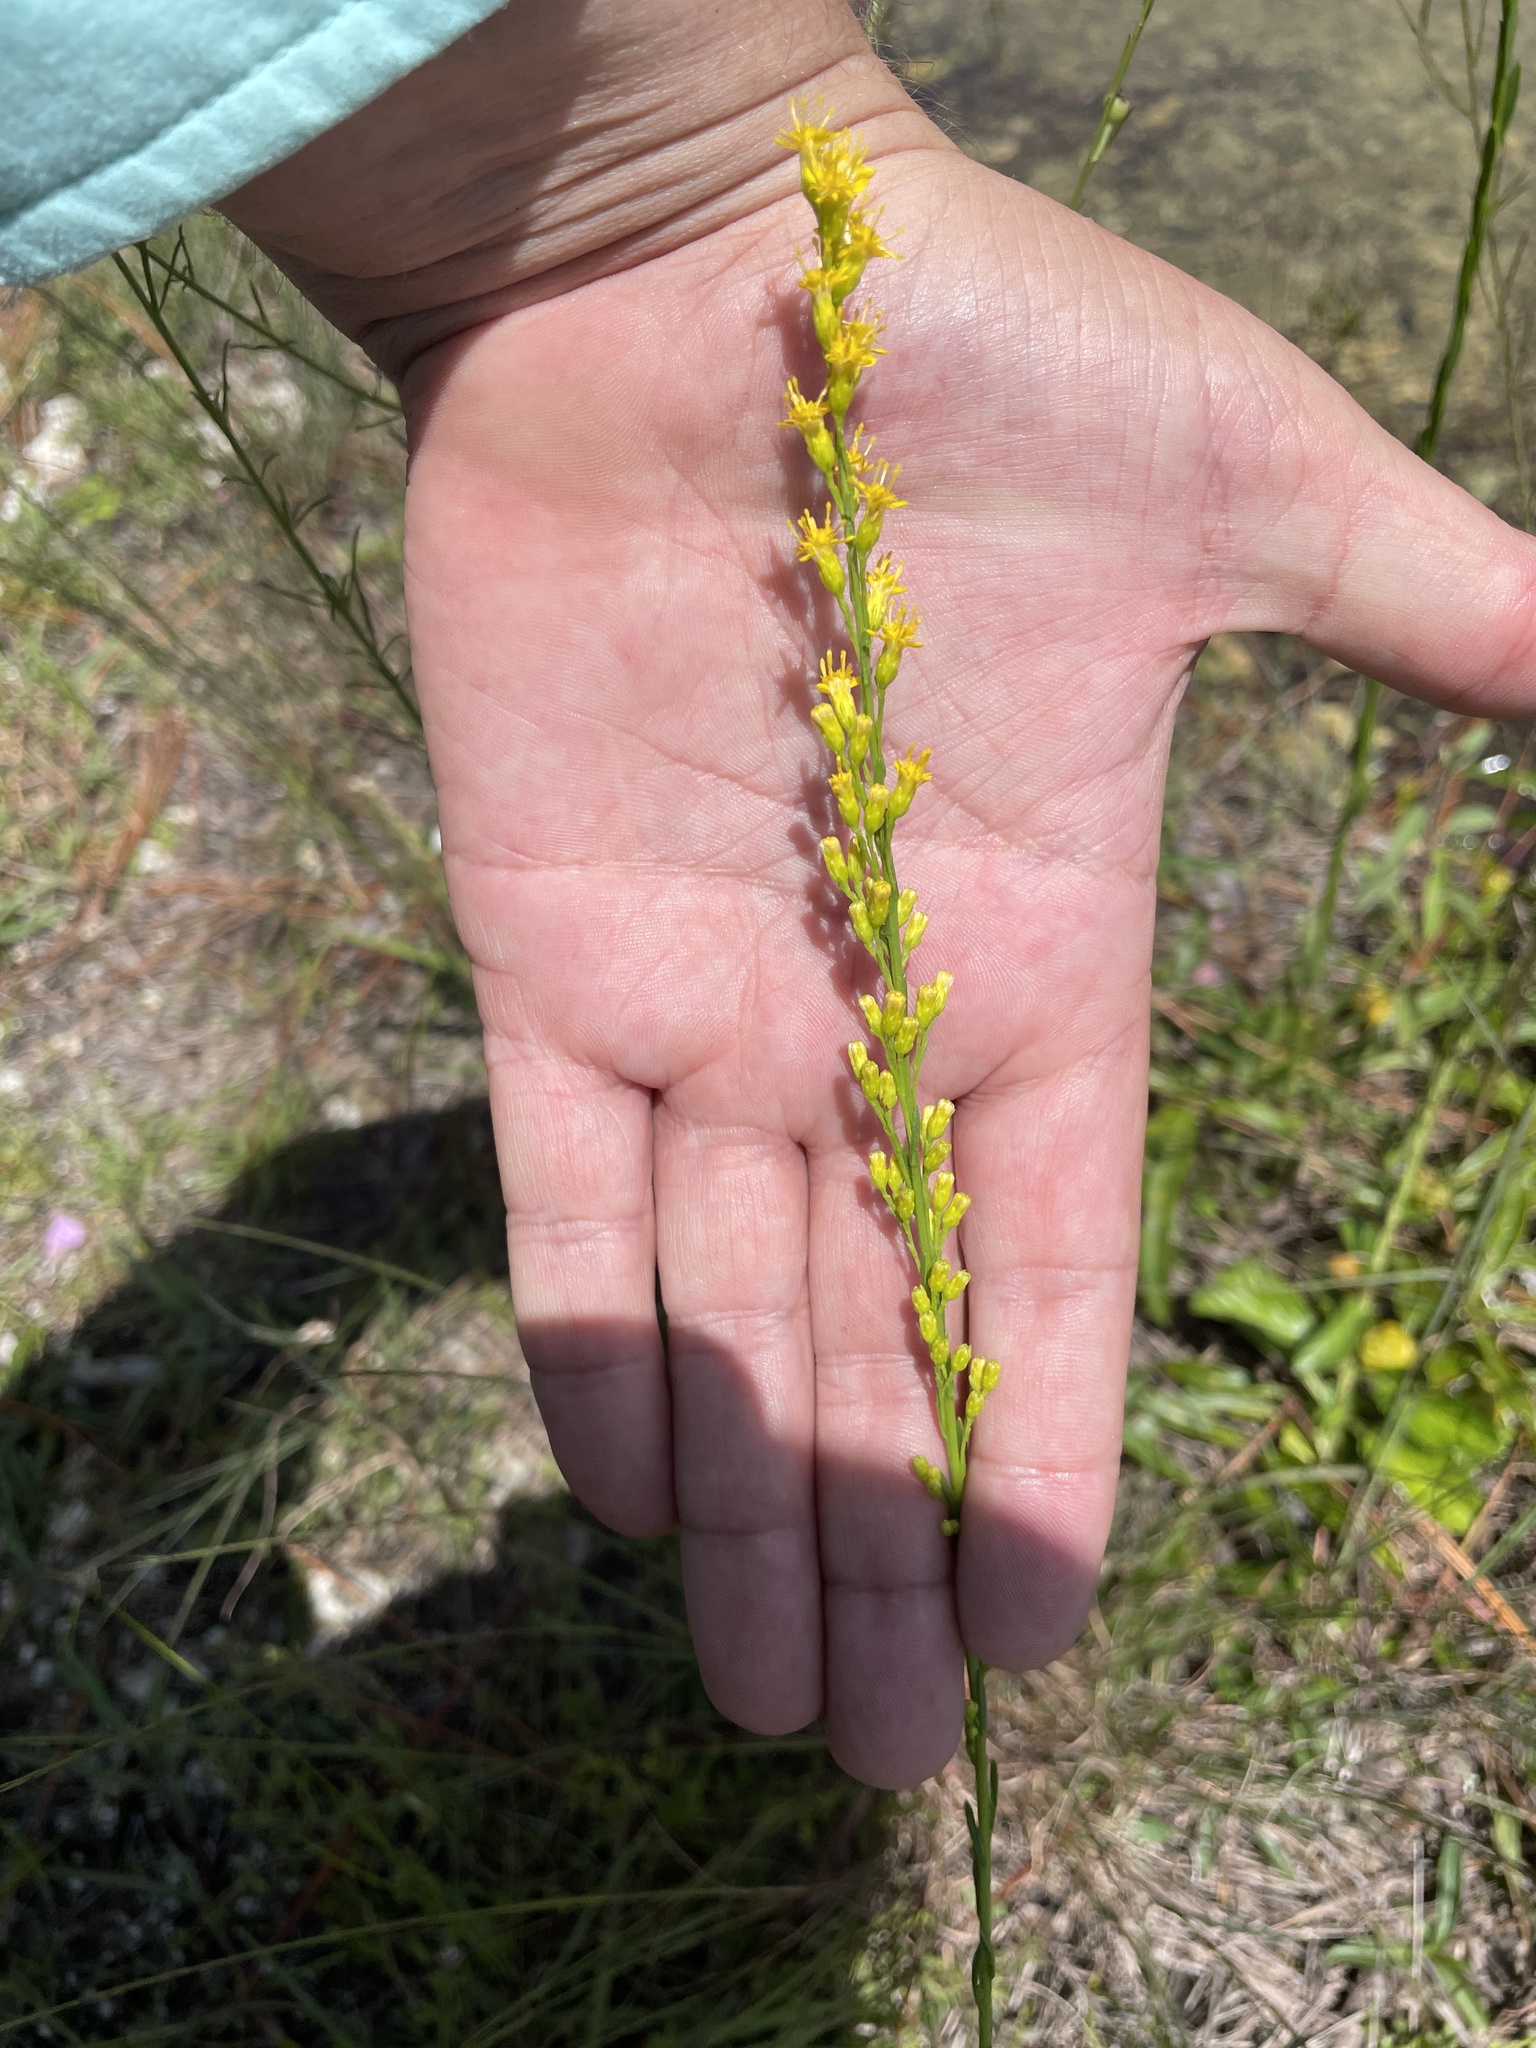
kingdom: Plantae
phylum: Tracheophyta
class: Magnoliopsida
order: Asterales
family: Asteraceae
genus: Solidago
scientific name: Solidago virgata
